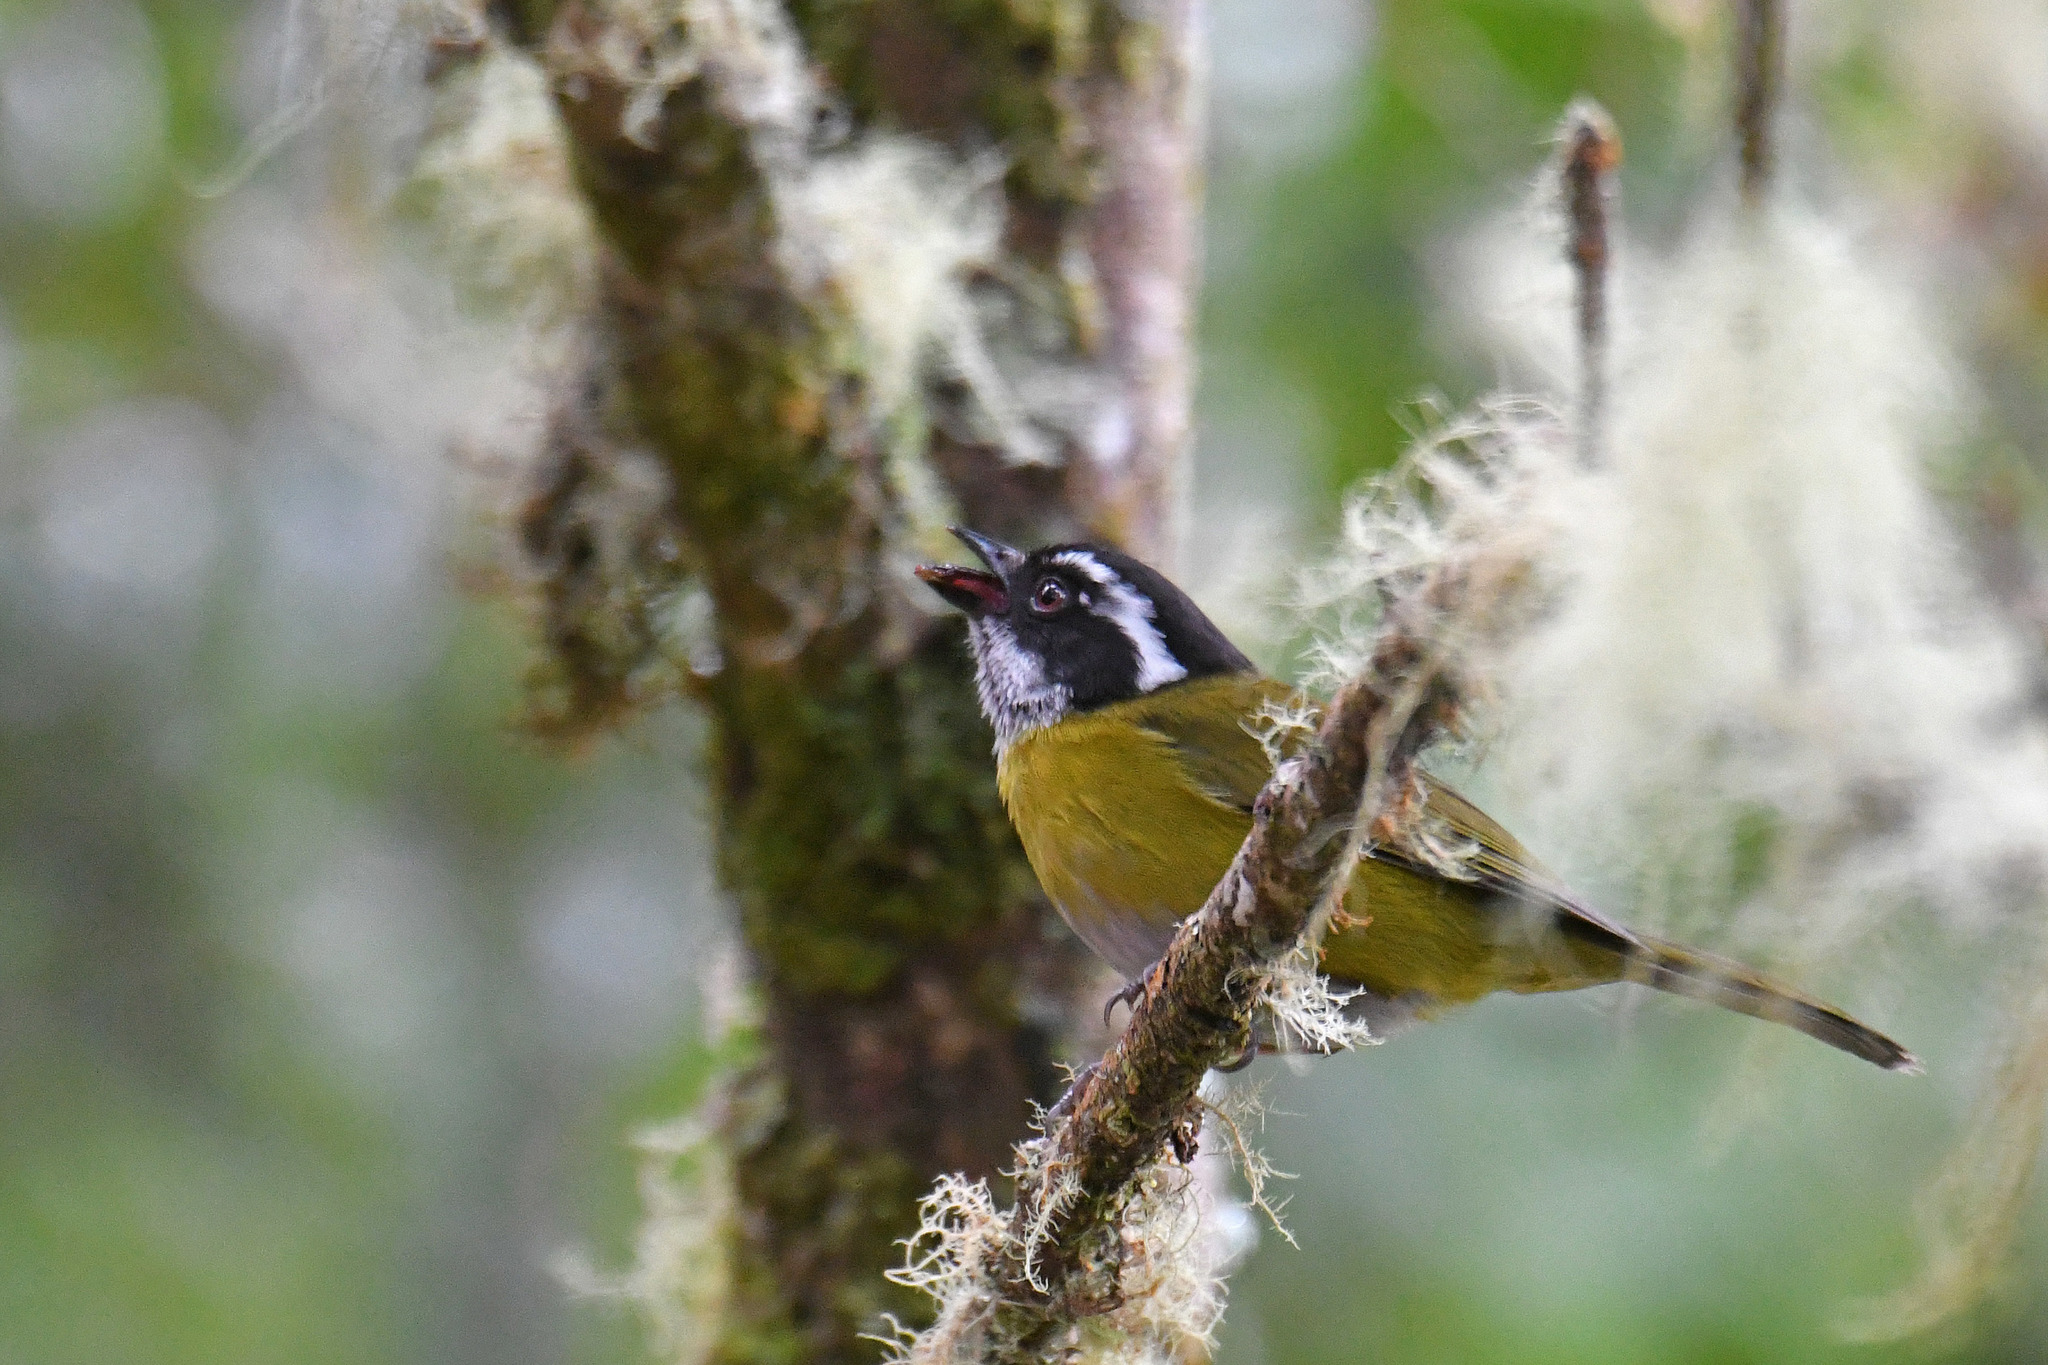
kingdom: Animalia
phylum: Chordata
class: Aves
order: Passeriformes
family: Passerellidae
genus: Chlorospingus
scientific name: Chlorospingus pileatus
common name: Sooty-capped bush-tanager
